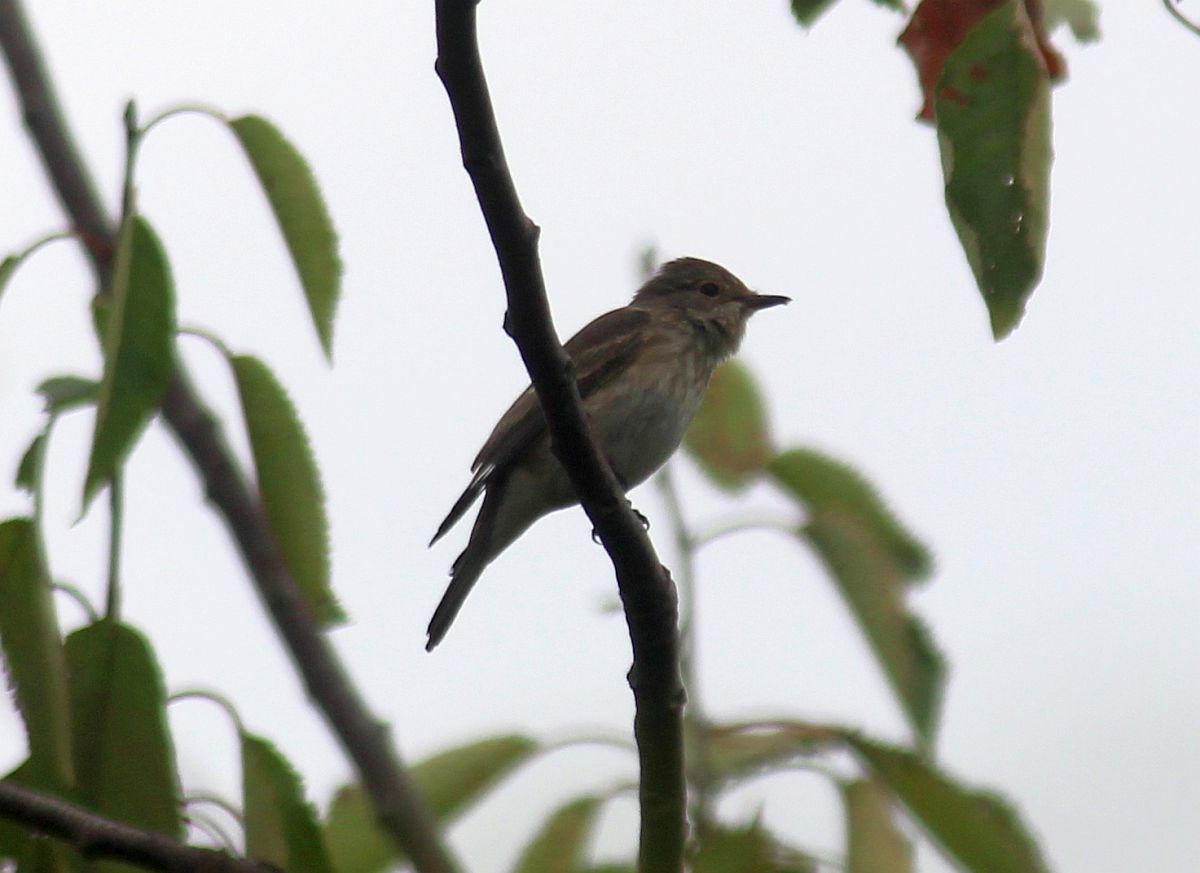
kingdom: Animalia
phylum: Chordata
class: Aves
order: Passeriformes
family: Muscicapidae
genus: Muscicapa
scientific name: Muscicapa striata
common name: Spotted flycatcher
